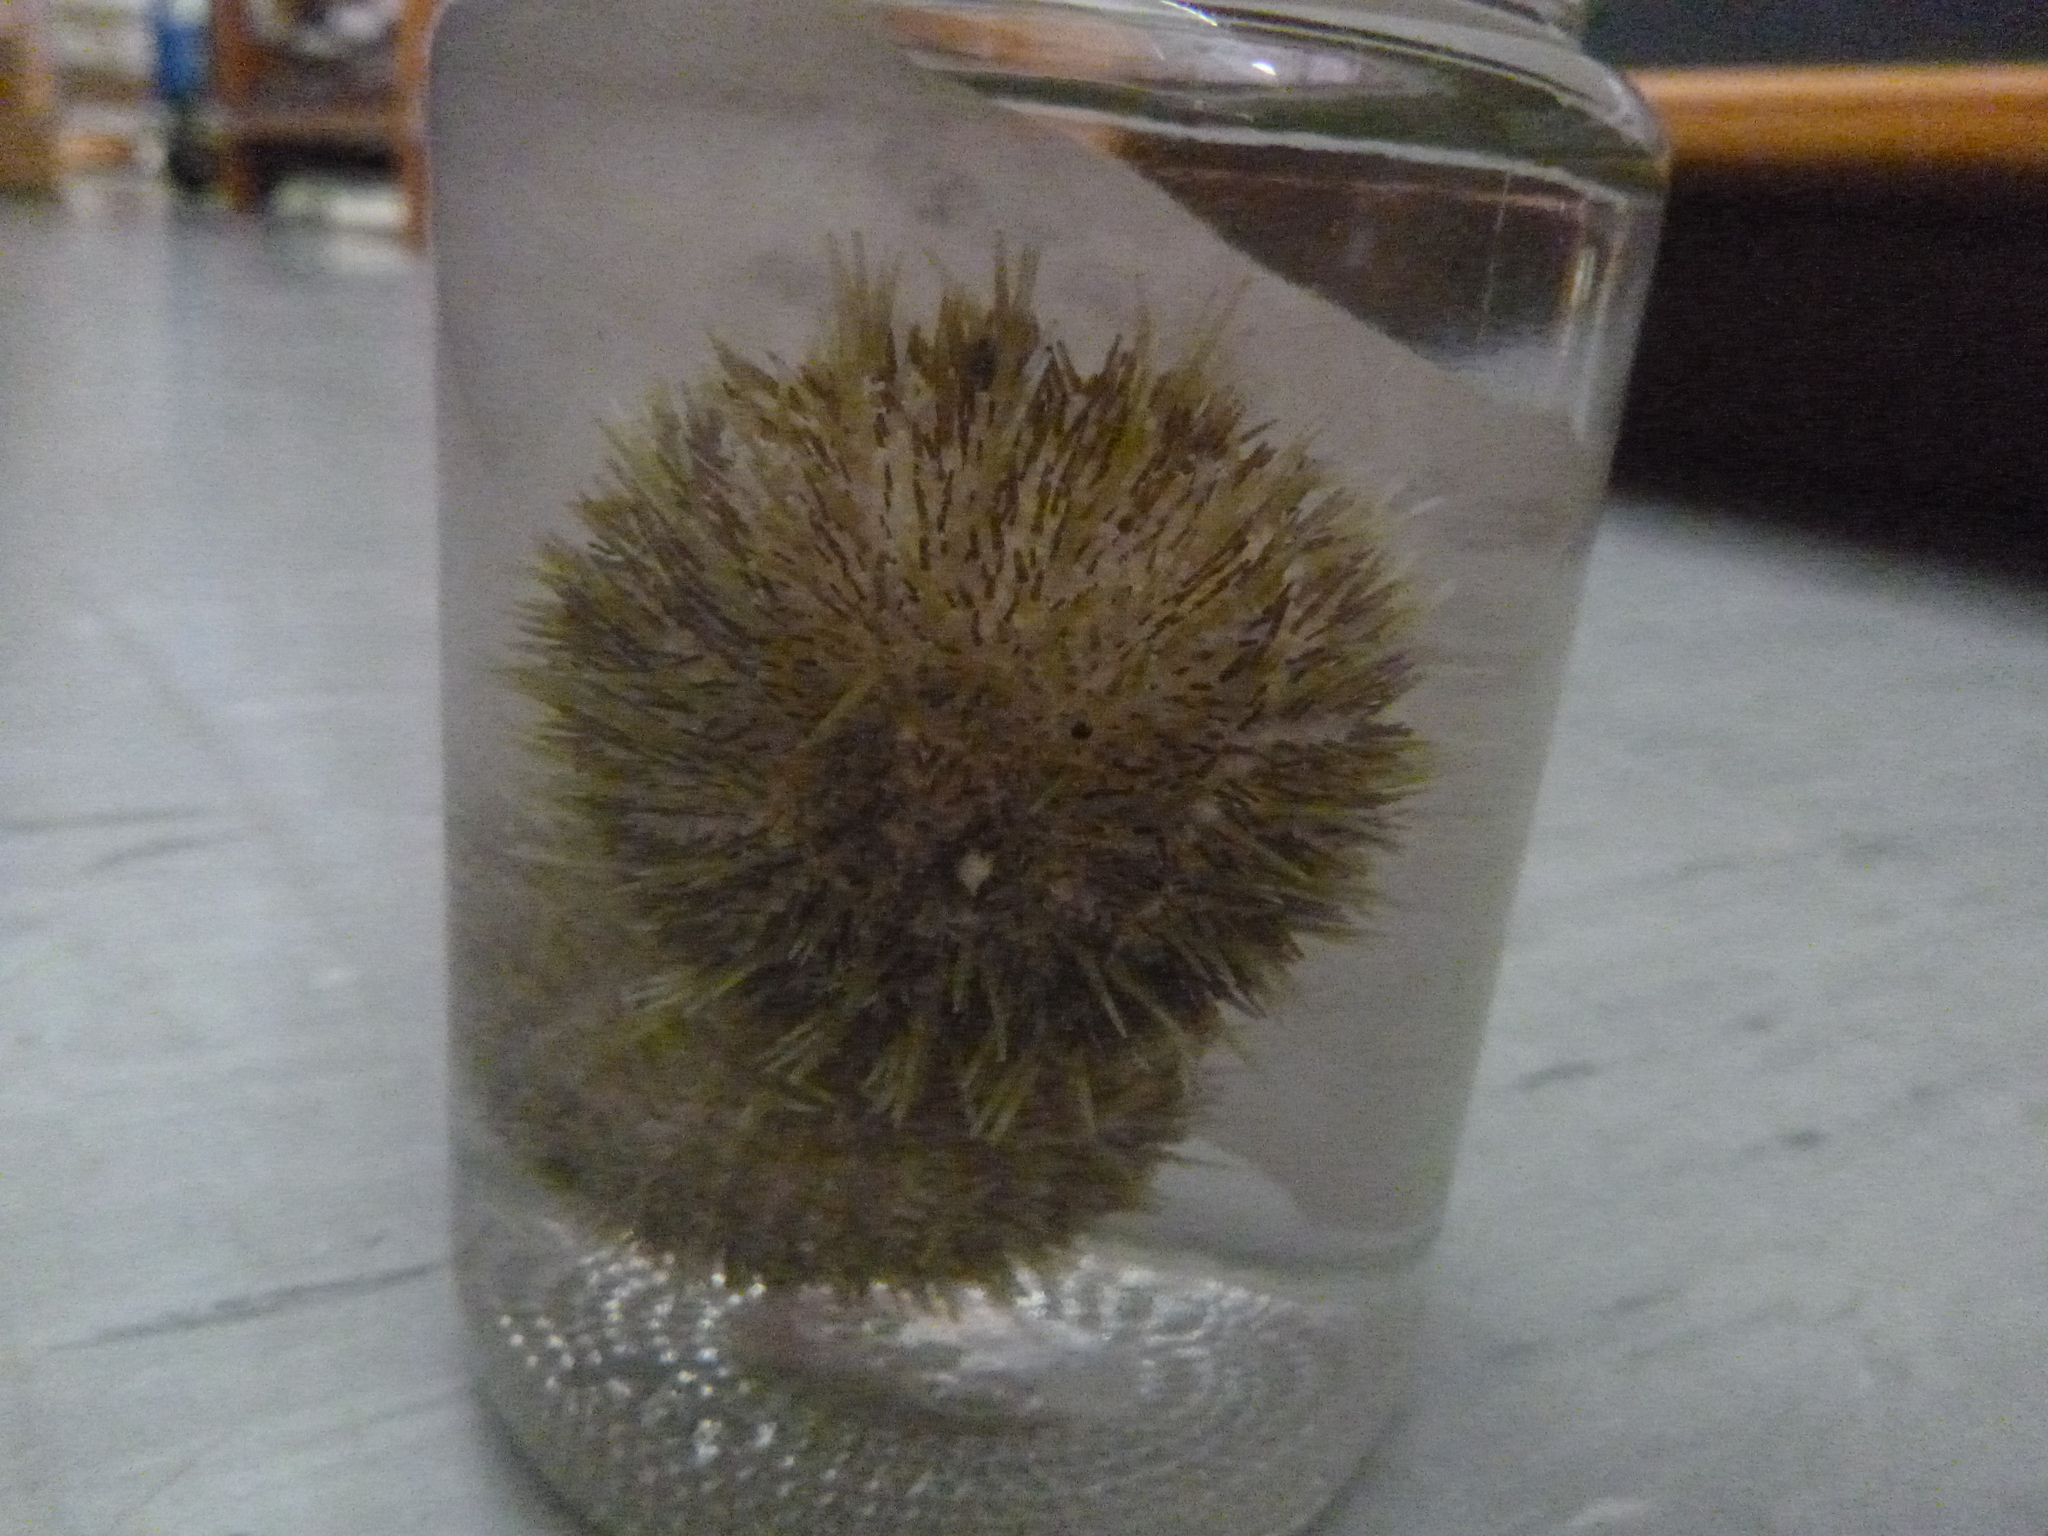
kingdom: Animalia
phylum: Echinodermata
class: Echinoidea
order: Camarodonta
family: Temnopleuridae
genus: Pseudechinus
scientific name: Pseudechinus novaezealandiae
